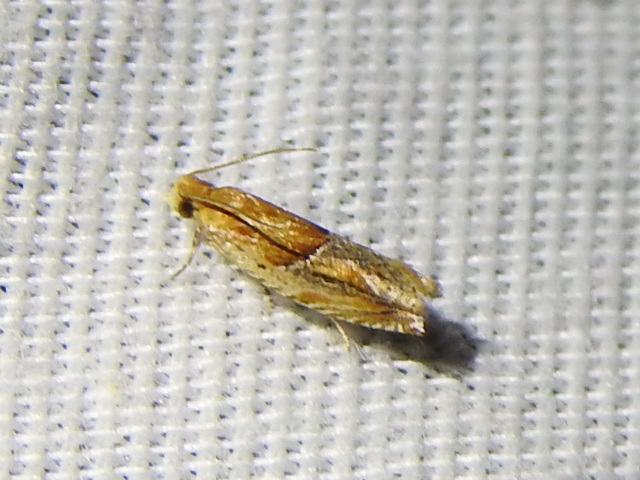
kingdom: Animalia
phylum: Arthropoda
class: Insecta
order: Lepidoptera
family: Tortricidae
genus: Ancylis
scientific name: Ancylis comptana
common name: Little roller
